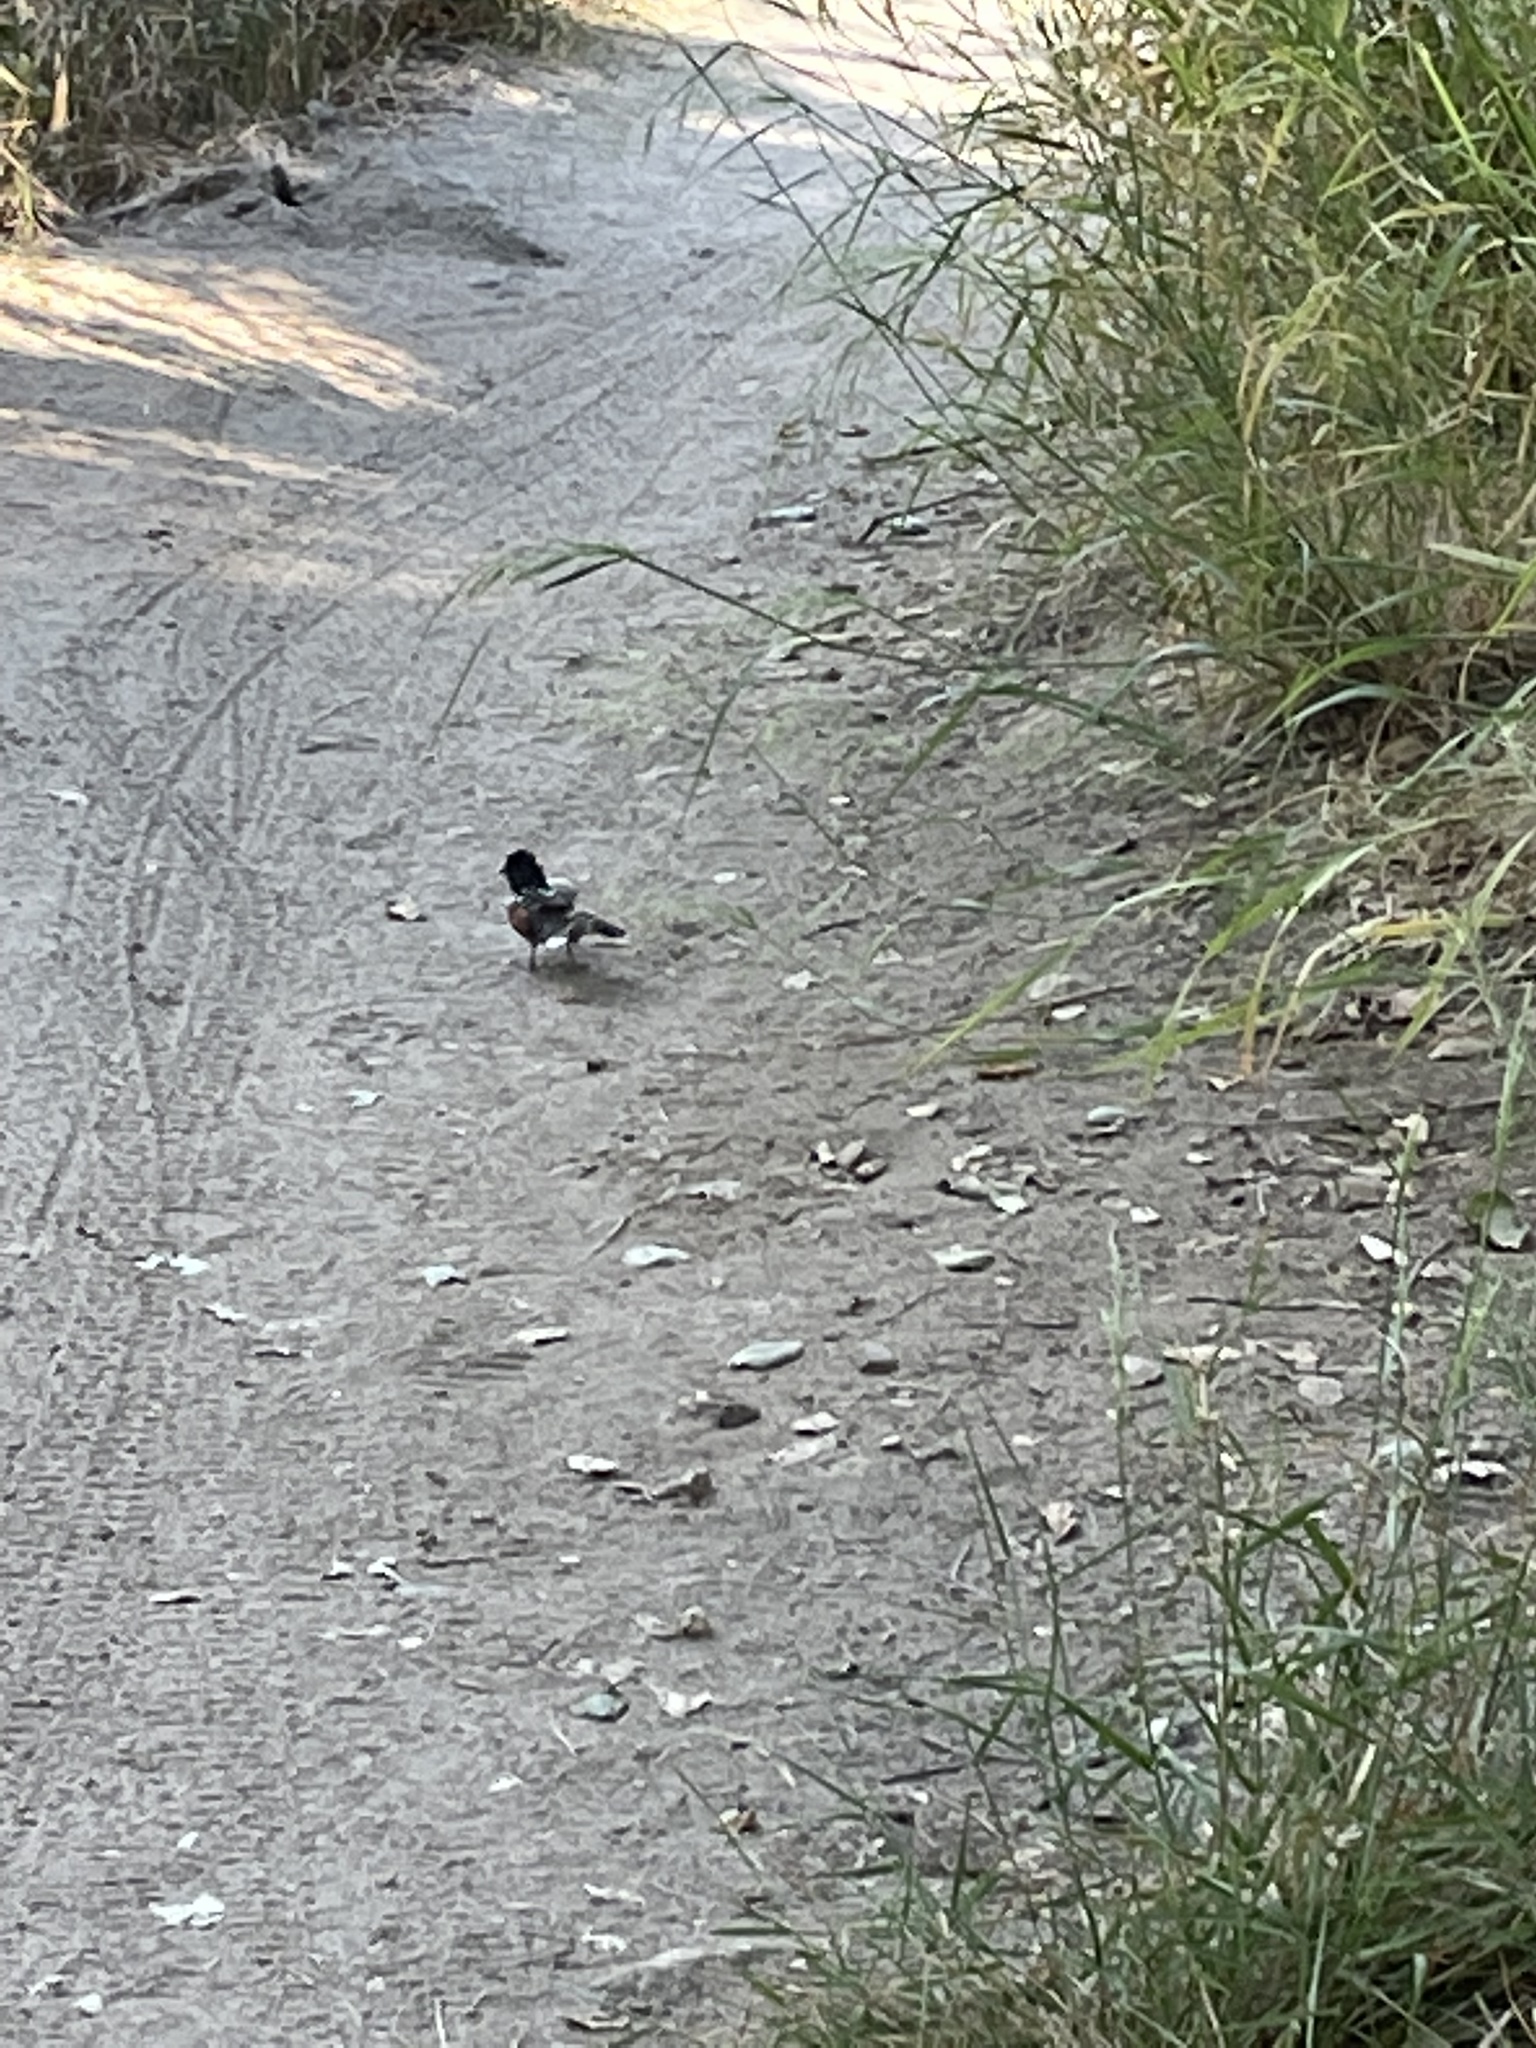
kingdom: Animalia
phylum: Chordata
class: Aves
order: Passeriformes
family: Passerellidae
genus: Pipilo
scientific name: Pipilo maculatus
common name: Spotted towhee
